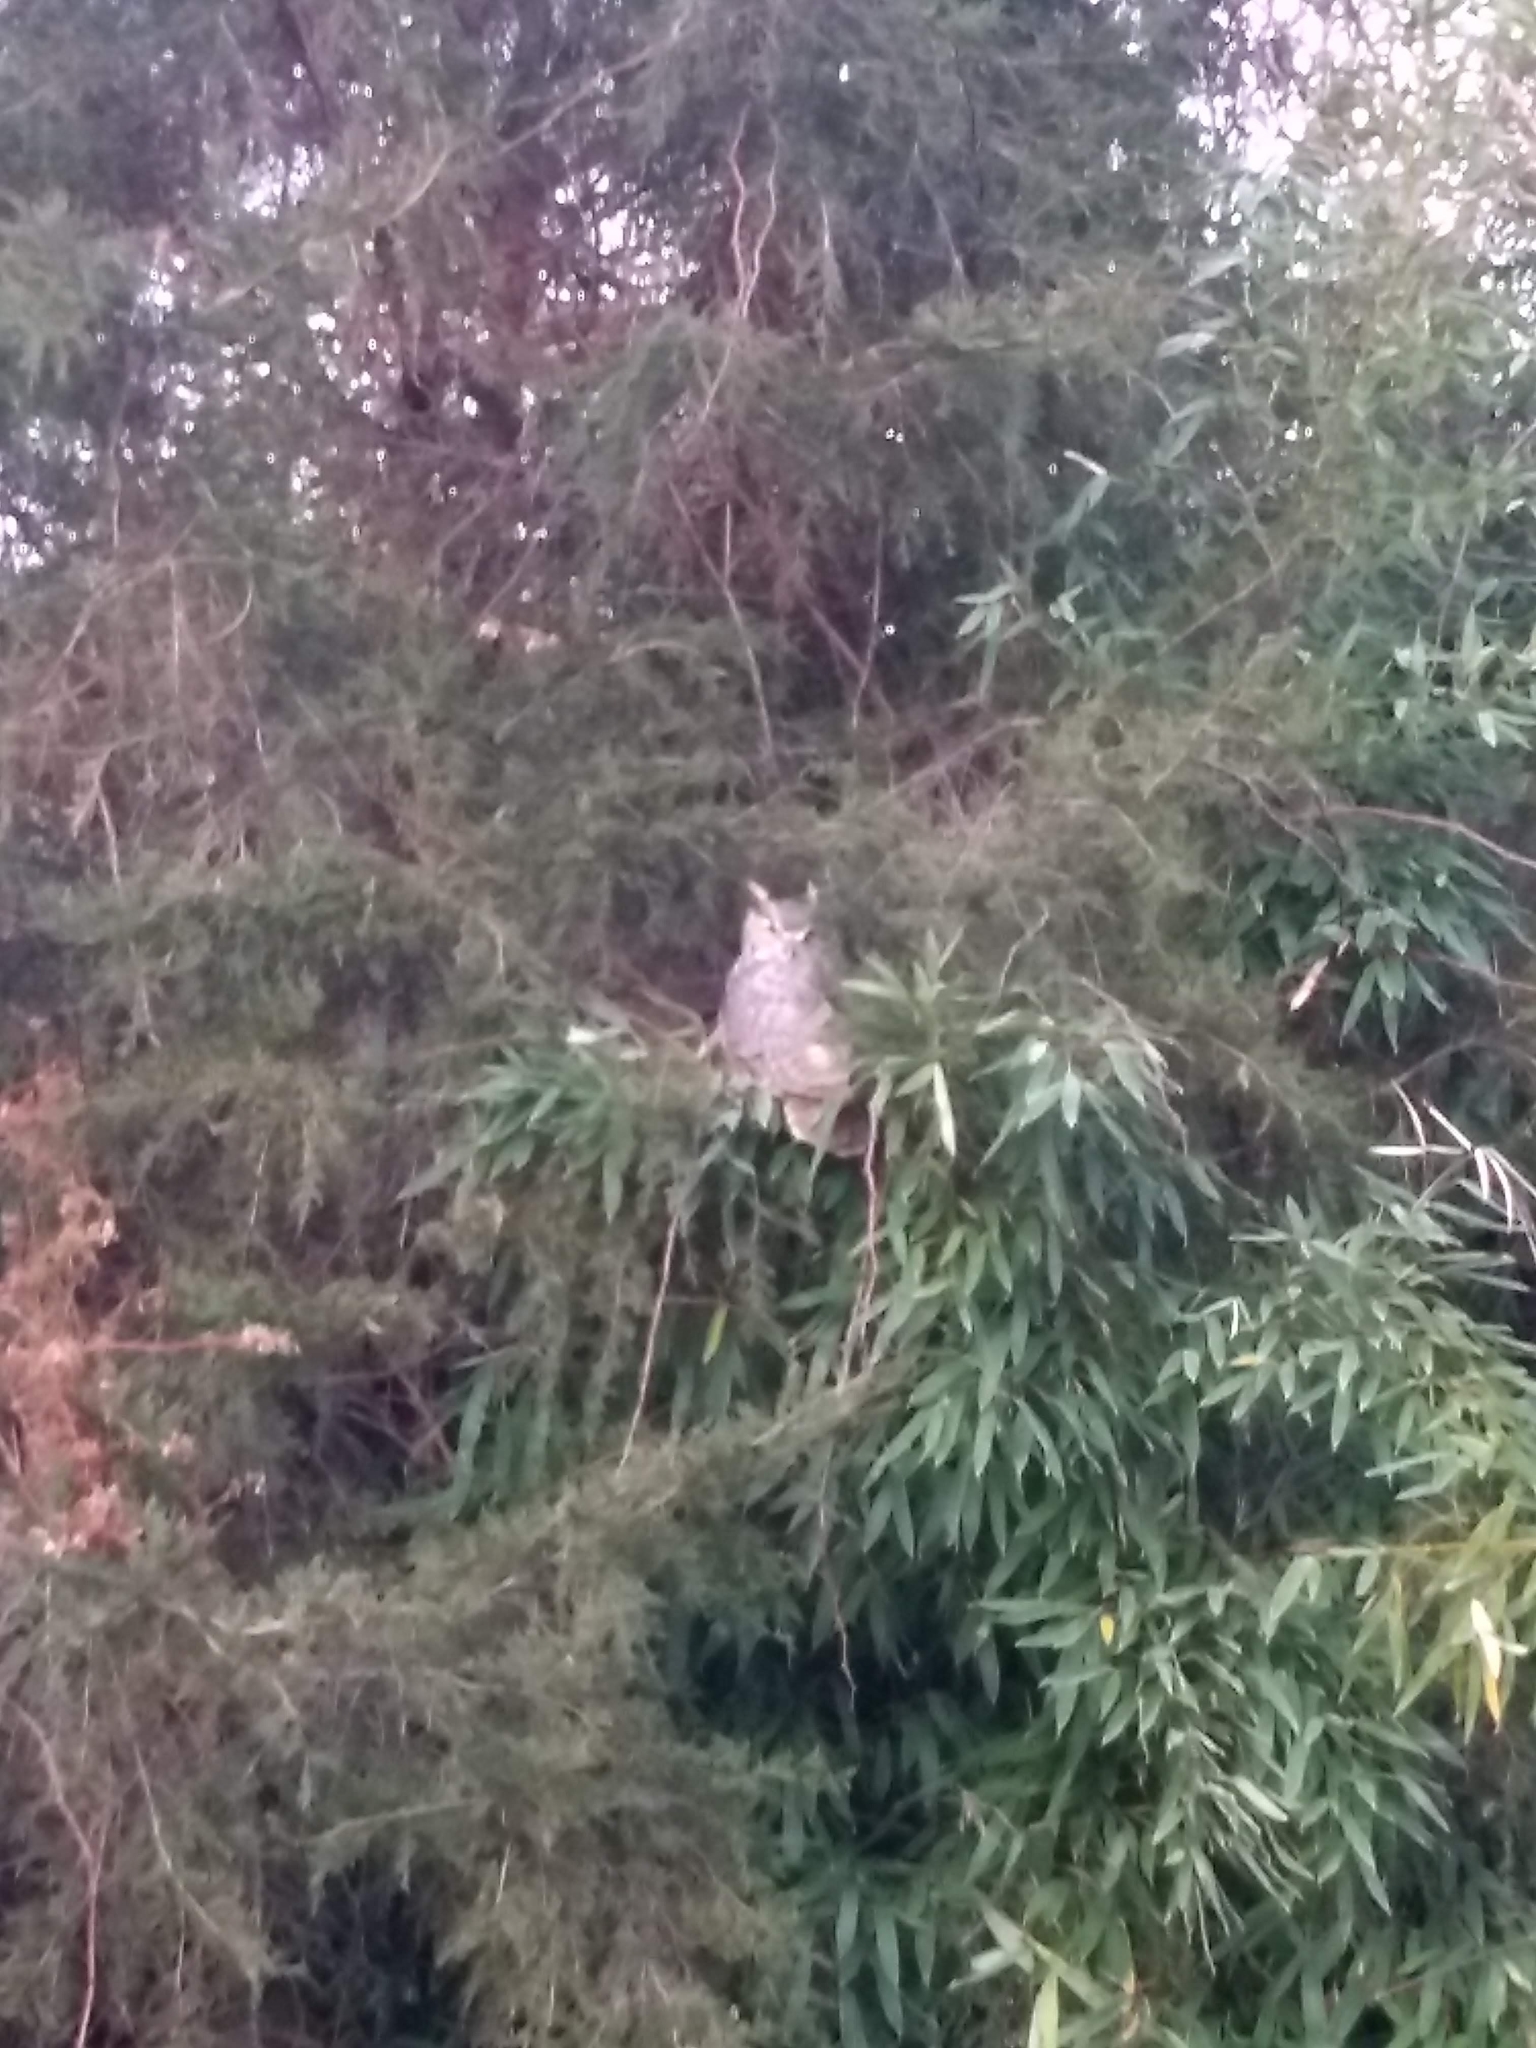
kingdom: Animalia
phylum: Chordata
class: Aves
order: Strigiformes
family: Strigidae
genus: Bubo
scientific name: Bubo virginianus
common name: Great horned owl
